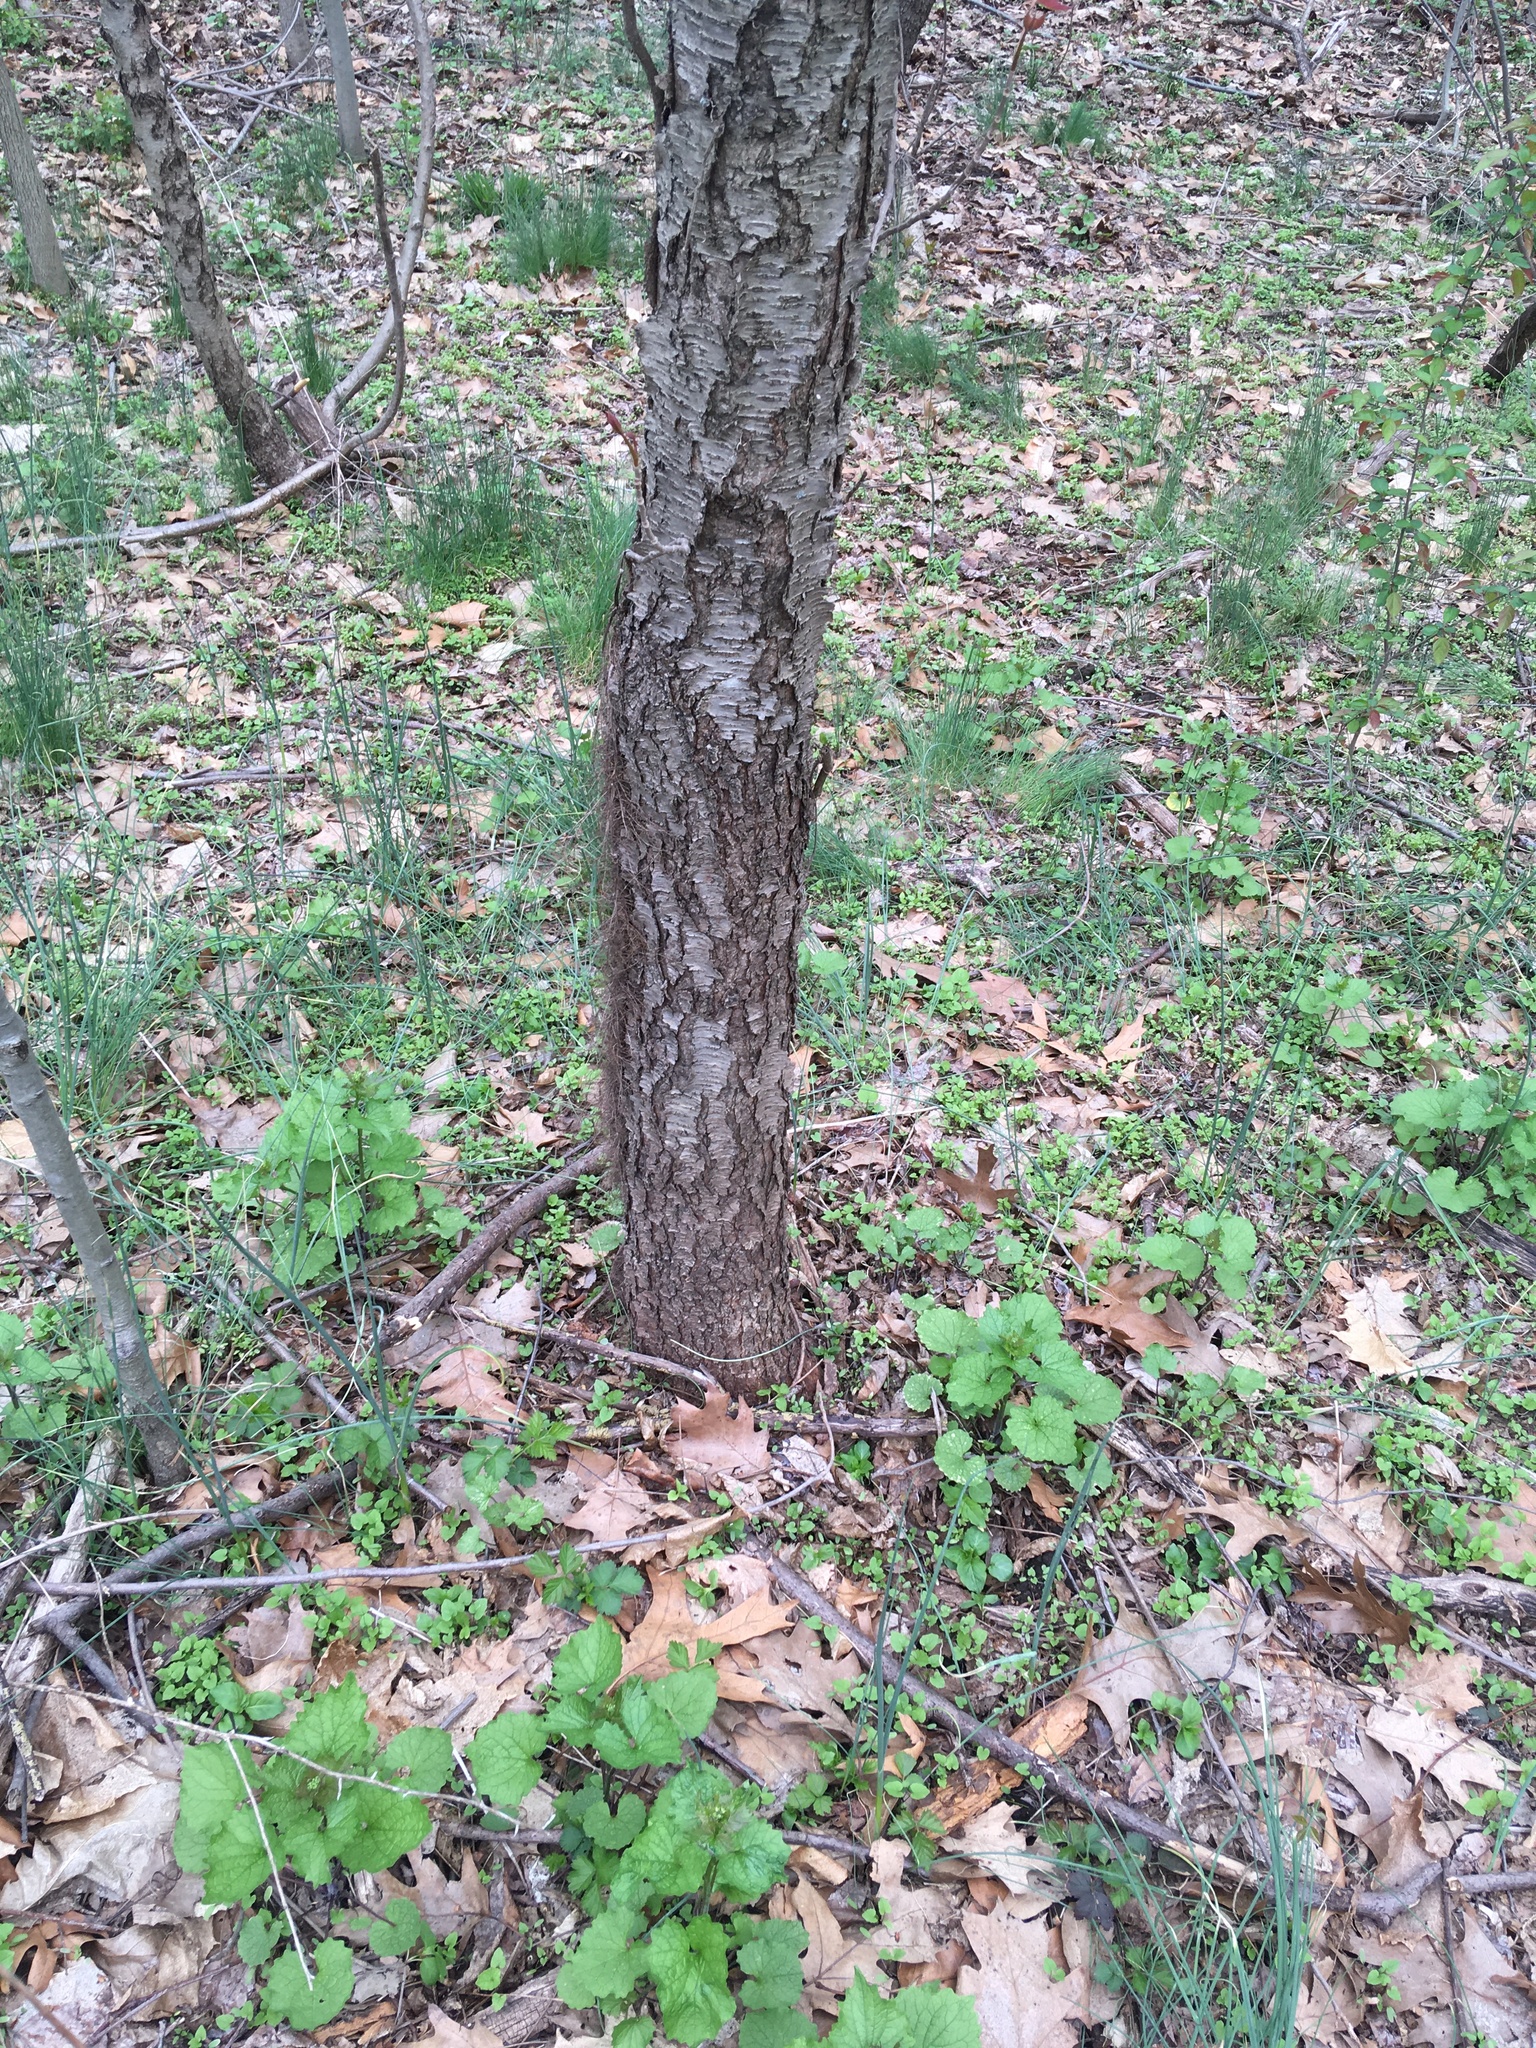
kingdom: Plantae
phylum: Tracheophyta
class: Magnoliopsida
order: Rosales
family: Rosaceae
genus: Prunus
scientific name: Prunus serotina
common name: Black cherry
